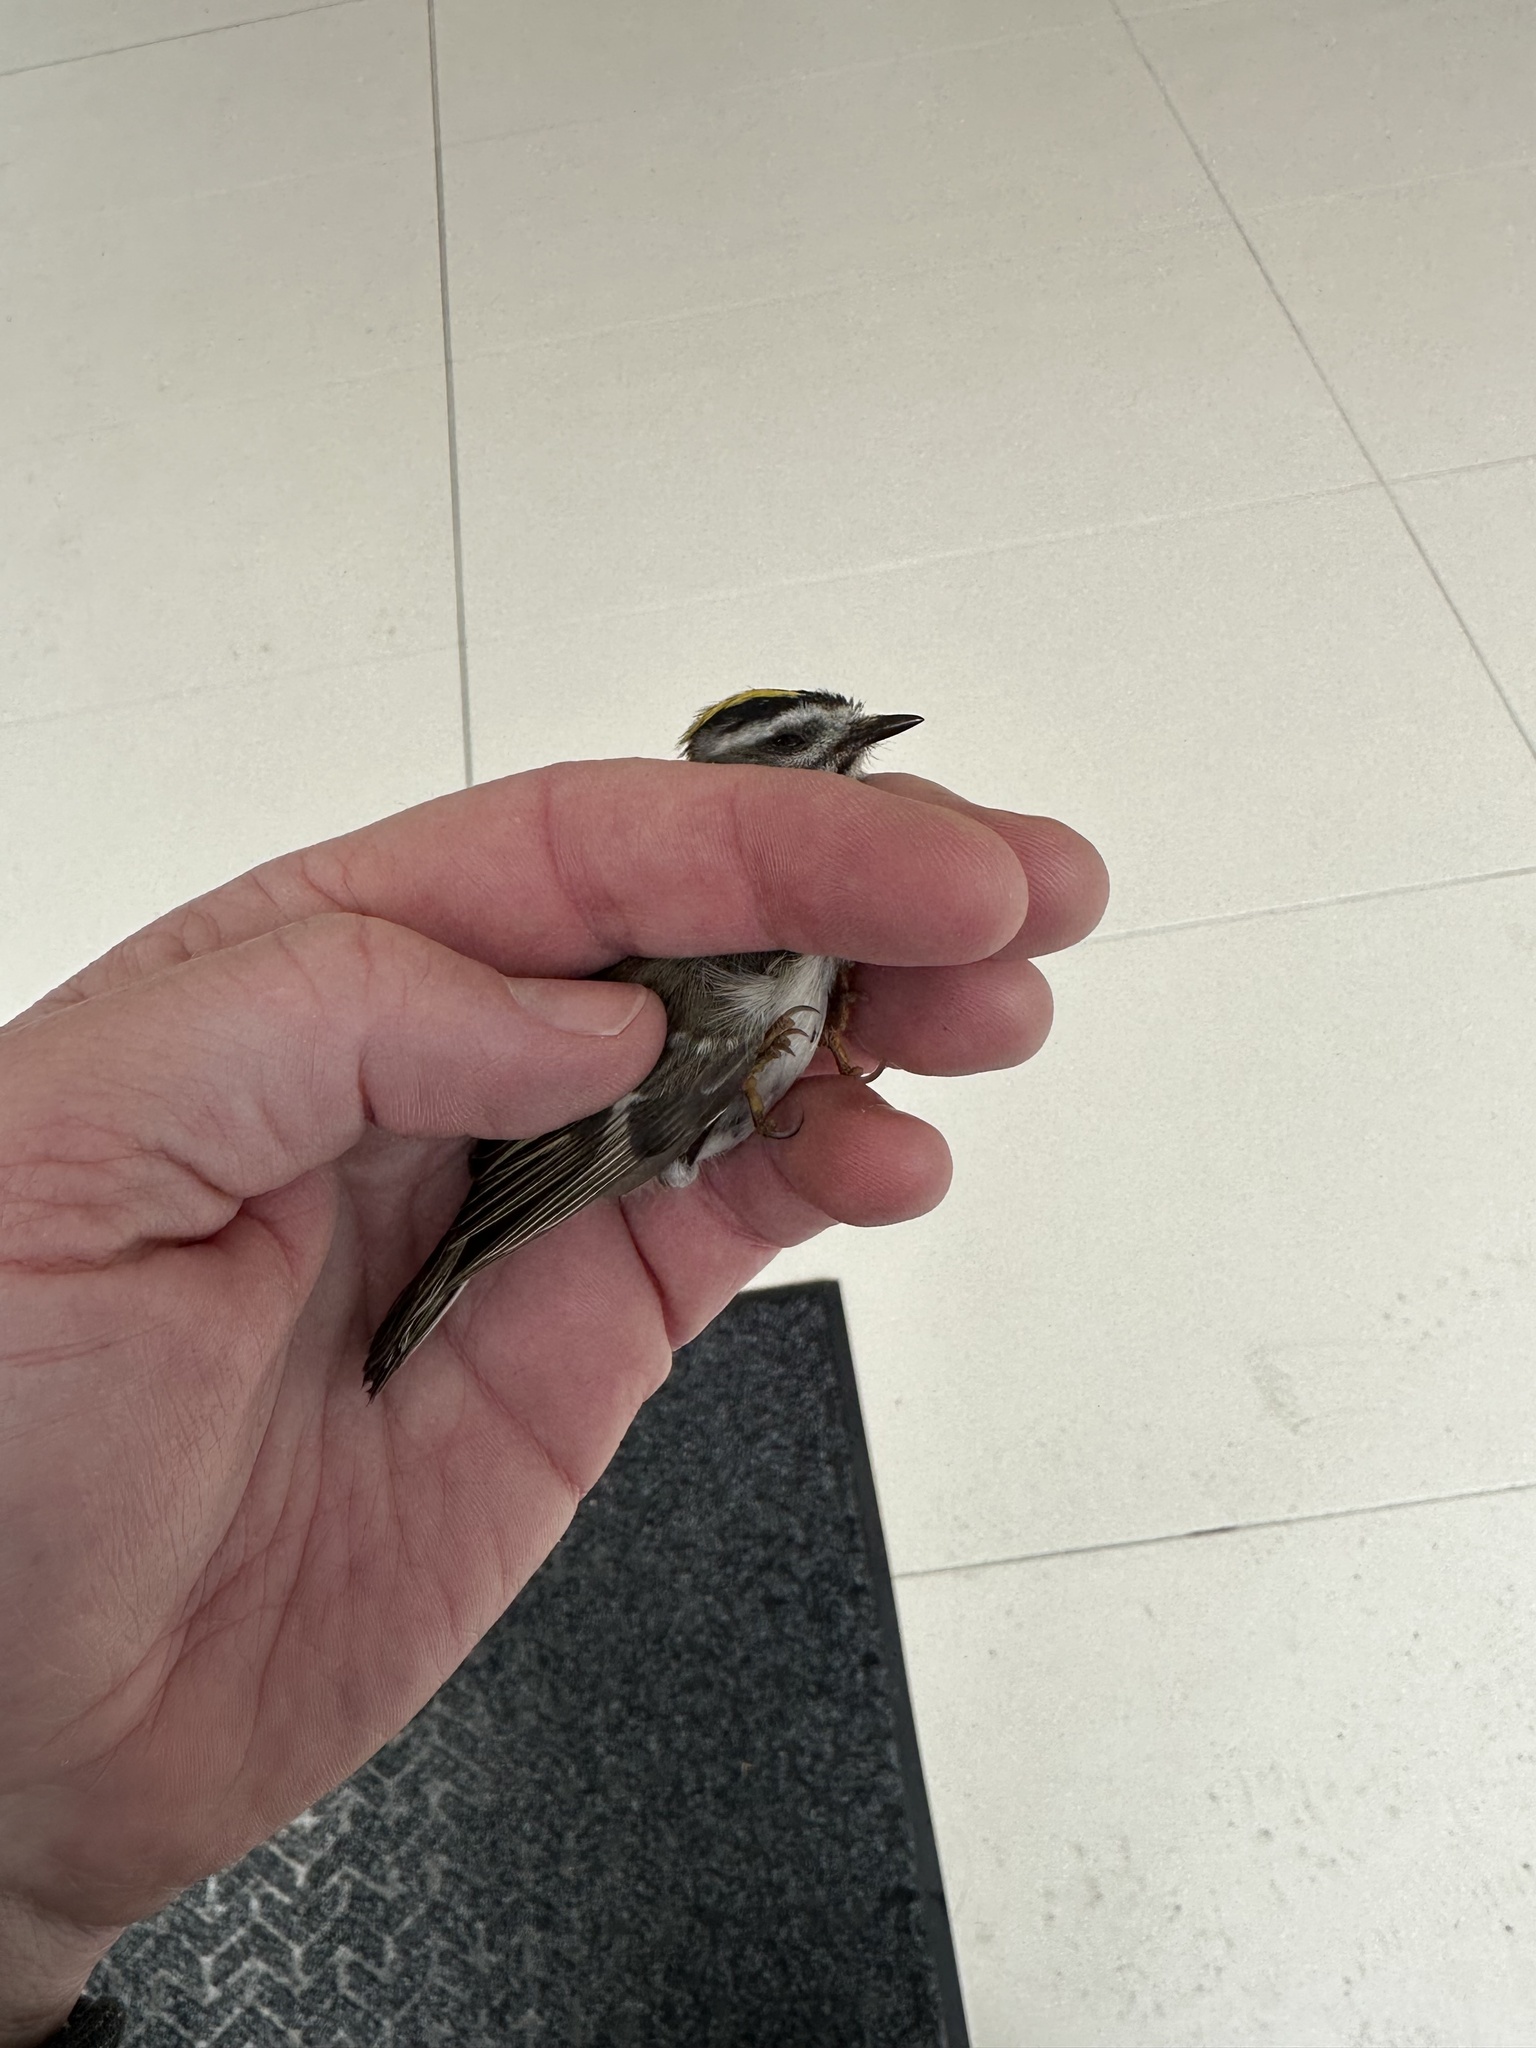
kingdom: Animalia
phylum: Chordata
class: Aves
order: Passeriformes
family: Regulidae
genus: Regulus
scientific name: Regulus satrapa
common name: Golden-crowned kinglet
